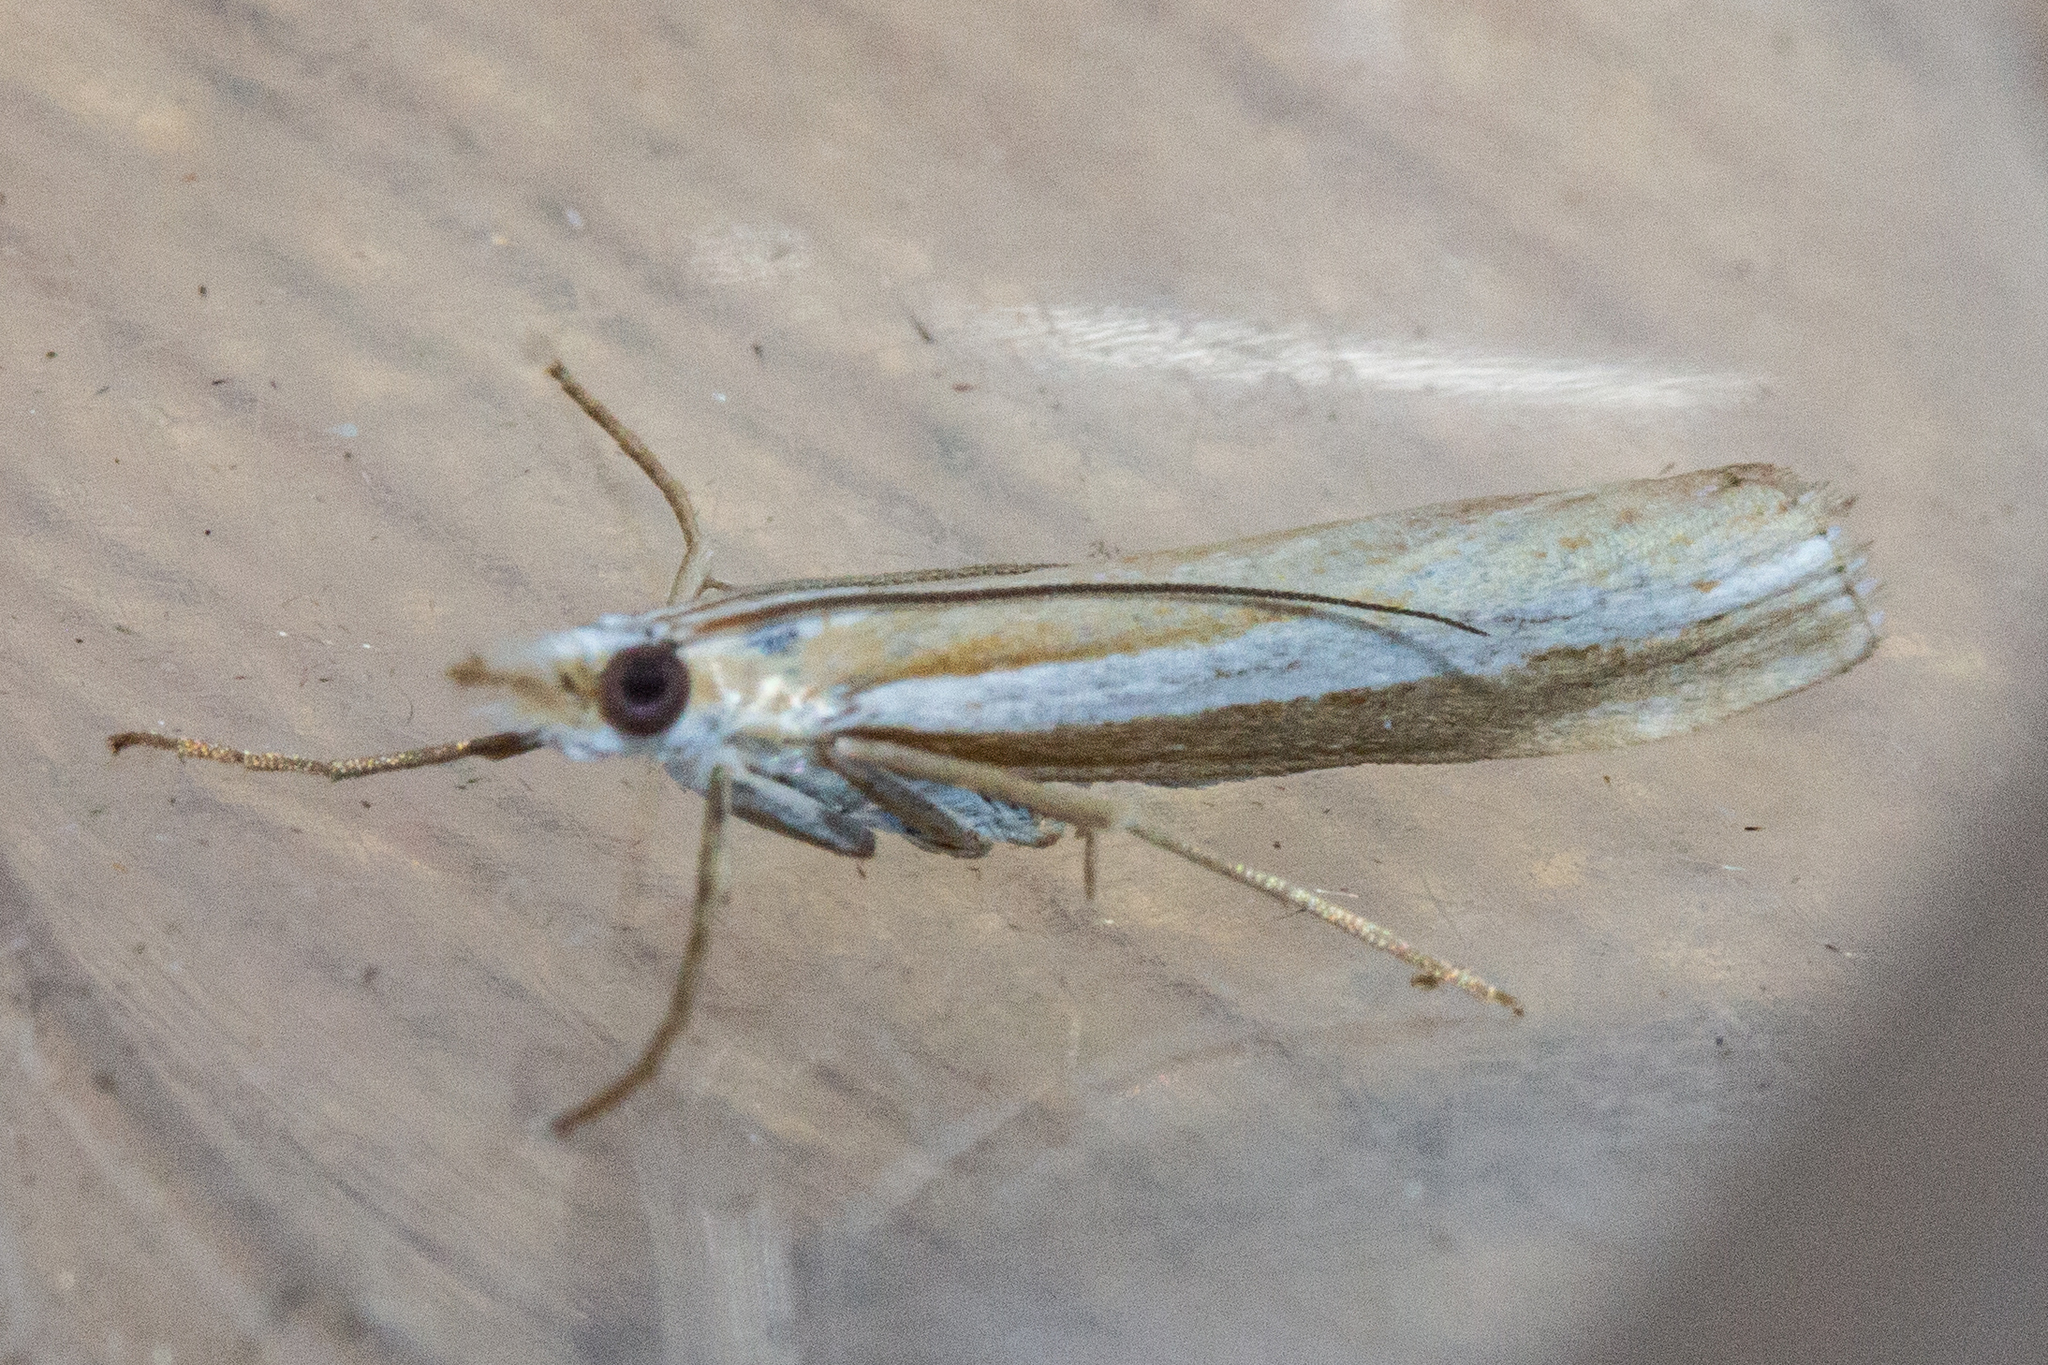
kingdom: Animalia
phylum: Arthropoda
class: Insecta
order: Lepidoptera
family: Crambidae
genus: Orocrambus
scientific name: Orocrambus vittellus
